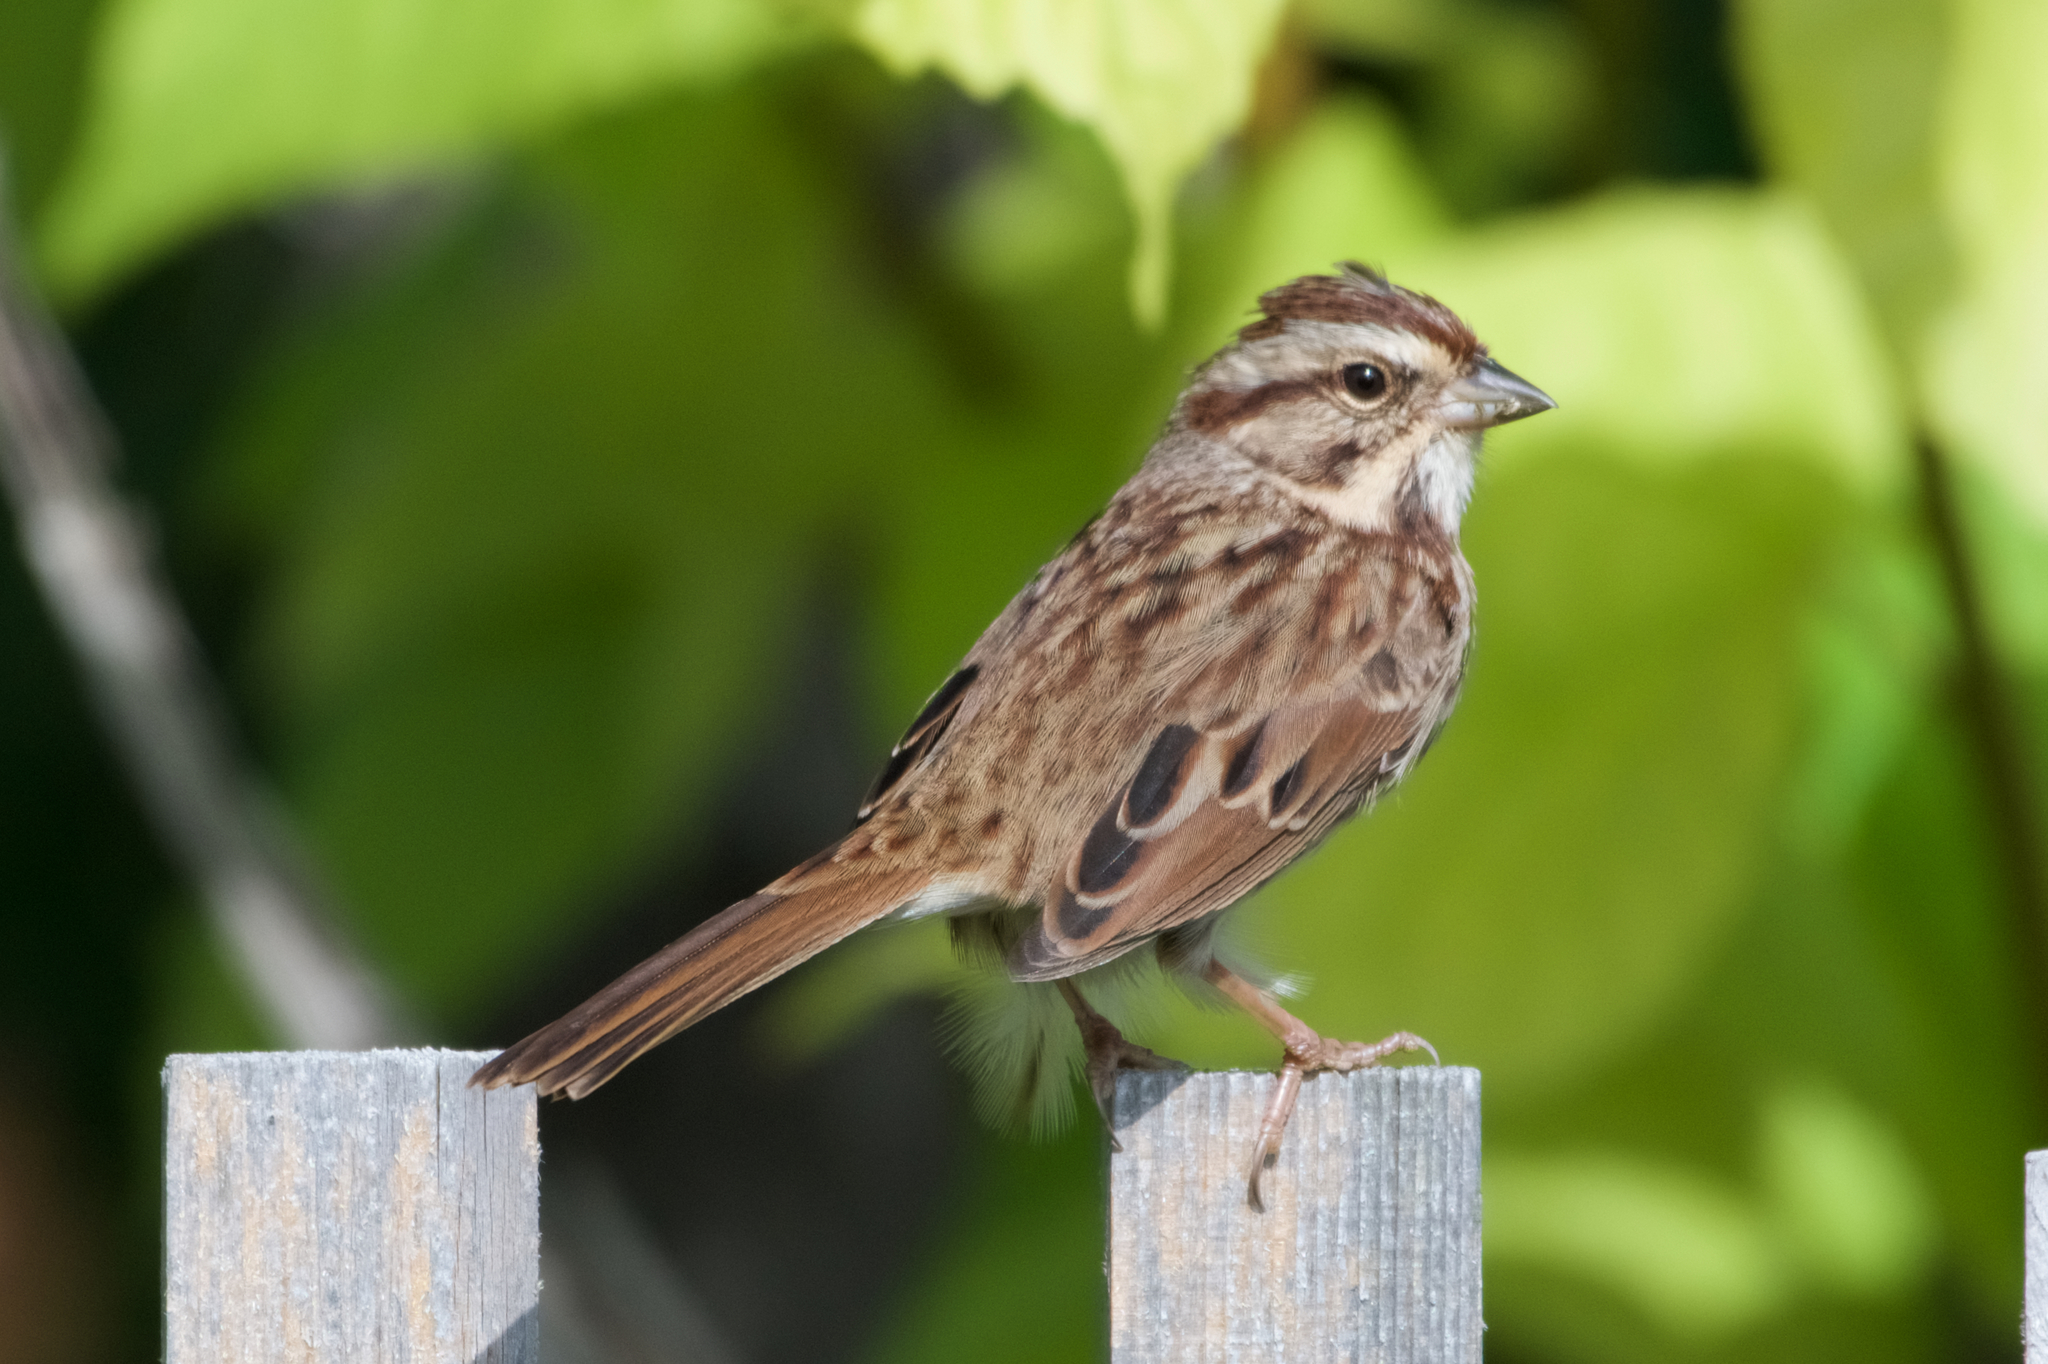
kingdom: Animalia
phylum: Chordata
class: Aves
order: Passeriformes
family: Passerellidae
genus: Melospiza
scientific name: Melospiza melodia
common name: Song sparrow
